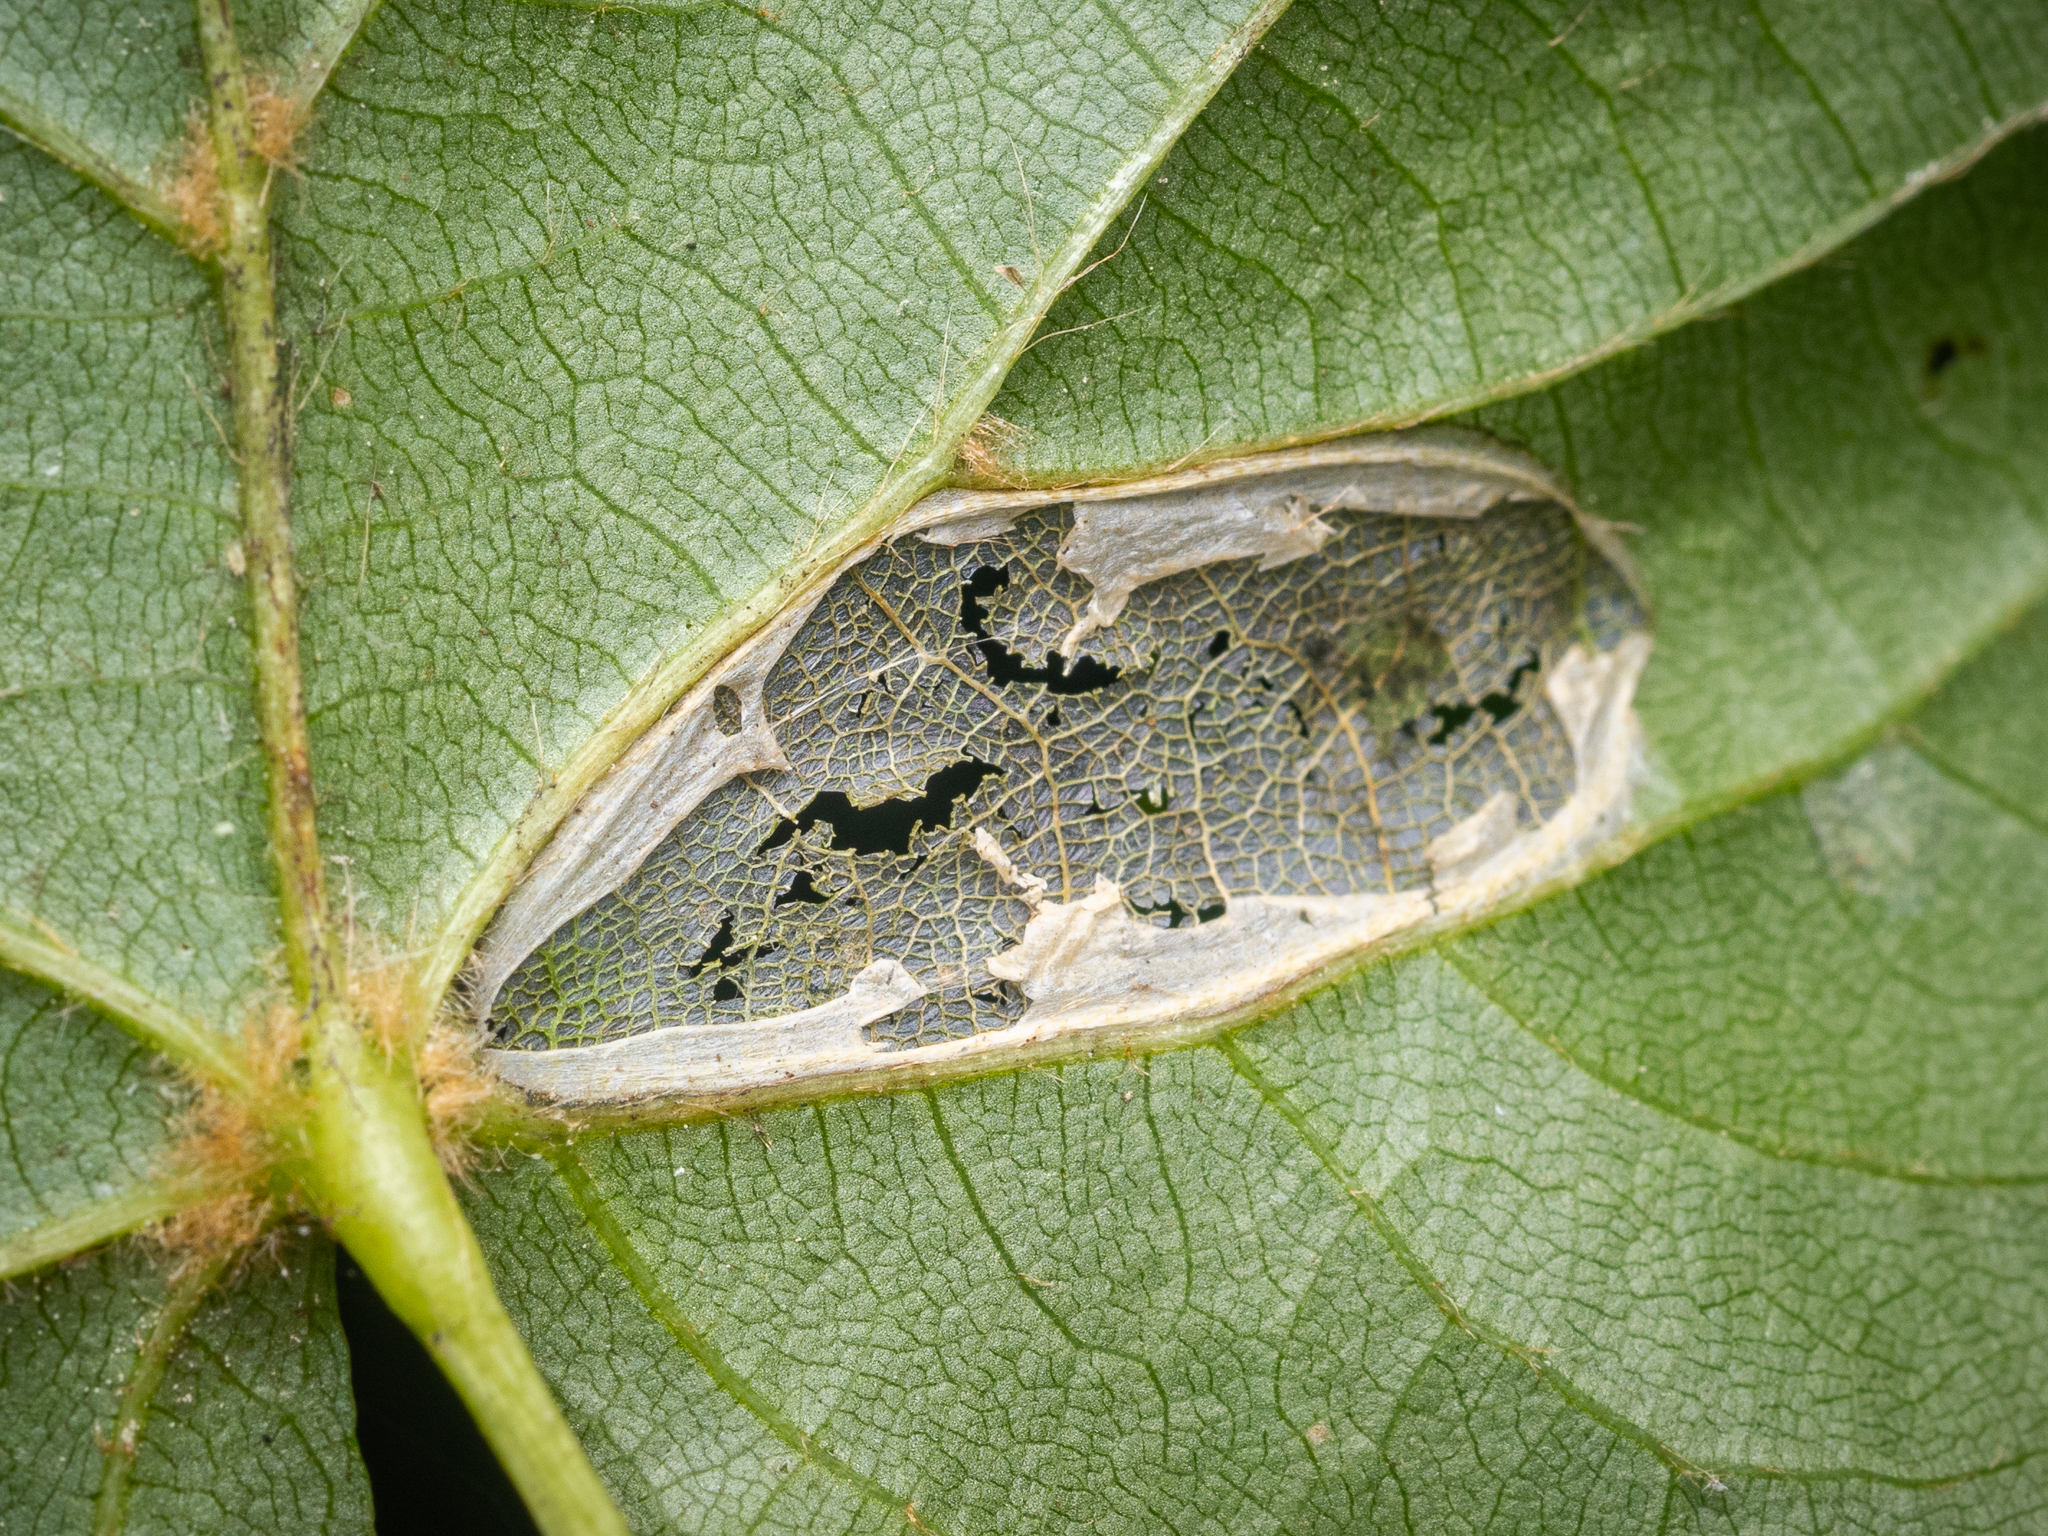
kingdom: Animalia
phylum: Arthropoda
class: Insecta
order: Lepidoptera
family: Gracillariidae
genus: Phyllonorycter
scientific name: Phyllonorycter issikii
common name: Linden midget
